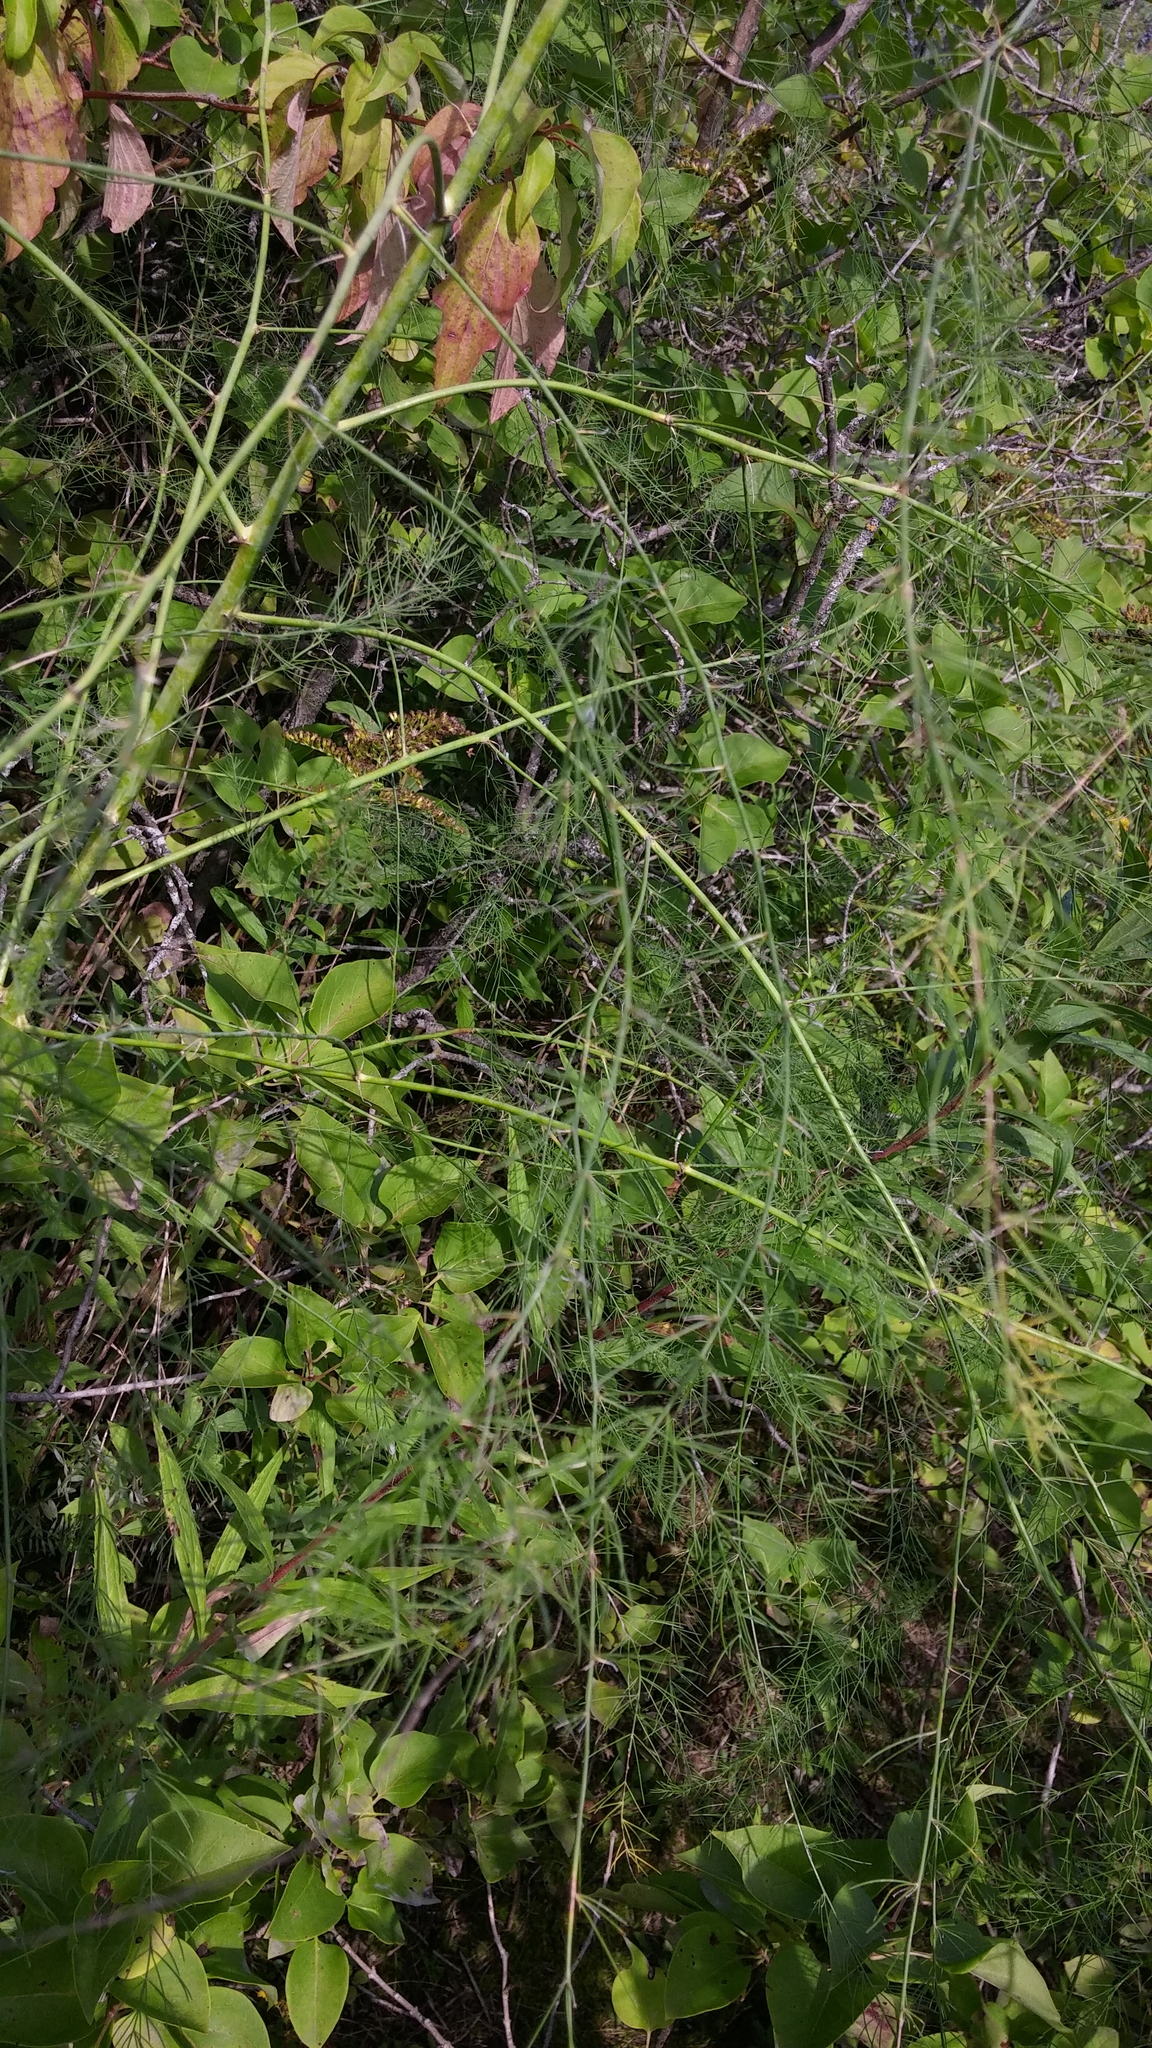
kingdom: Plantae
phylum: Tracheophyta
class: Liliopsida
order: Asparagales
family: Asparagaceae
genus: Asparagus
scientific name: Asparagus officinalis
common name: Garden asparagus
